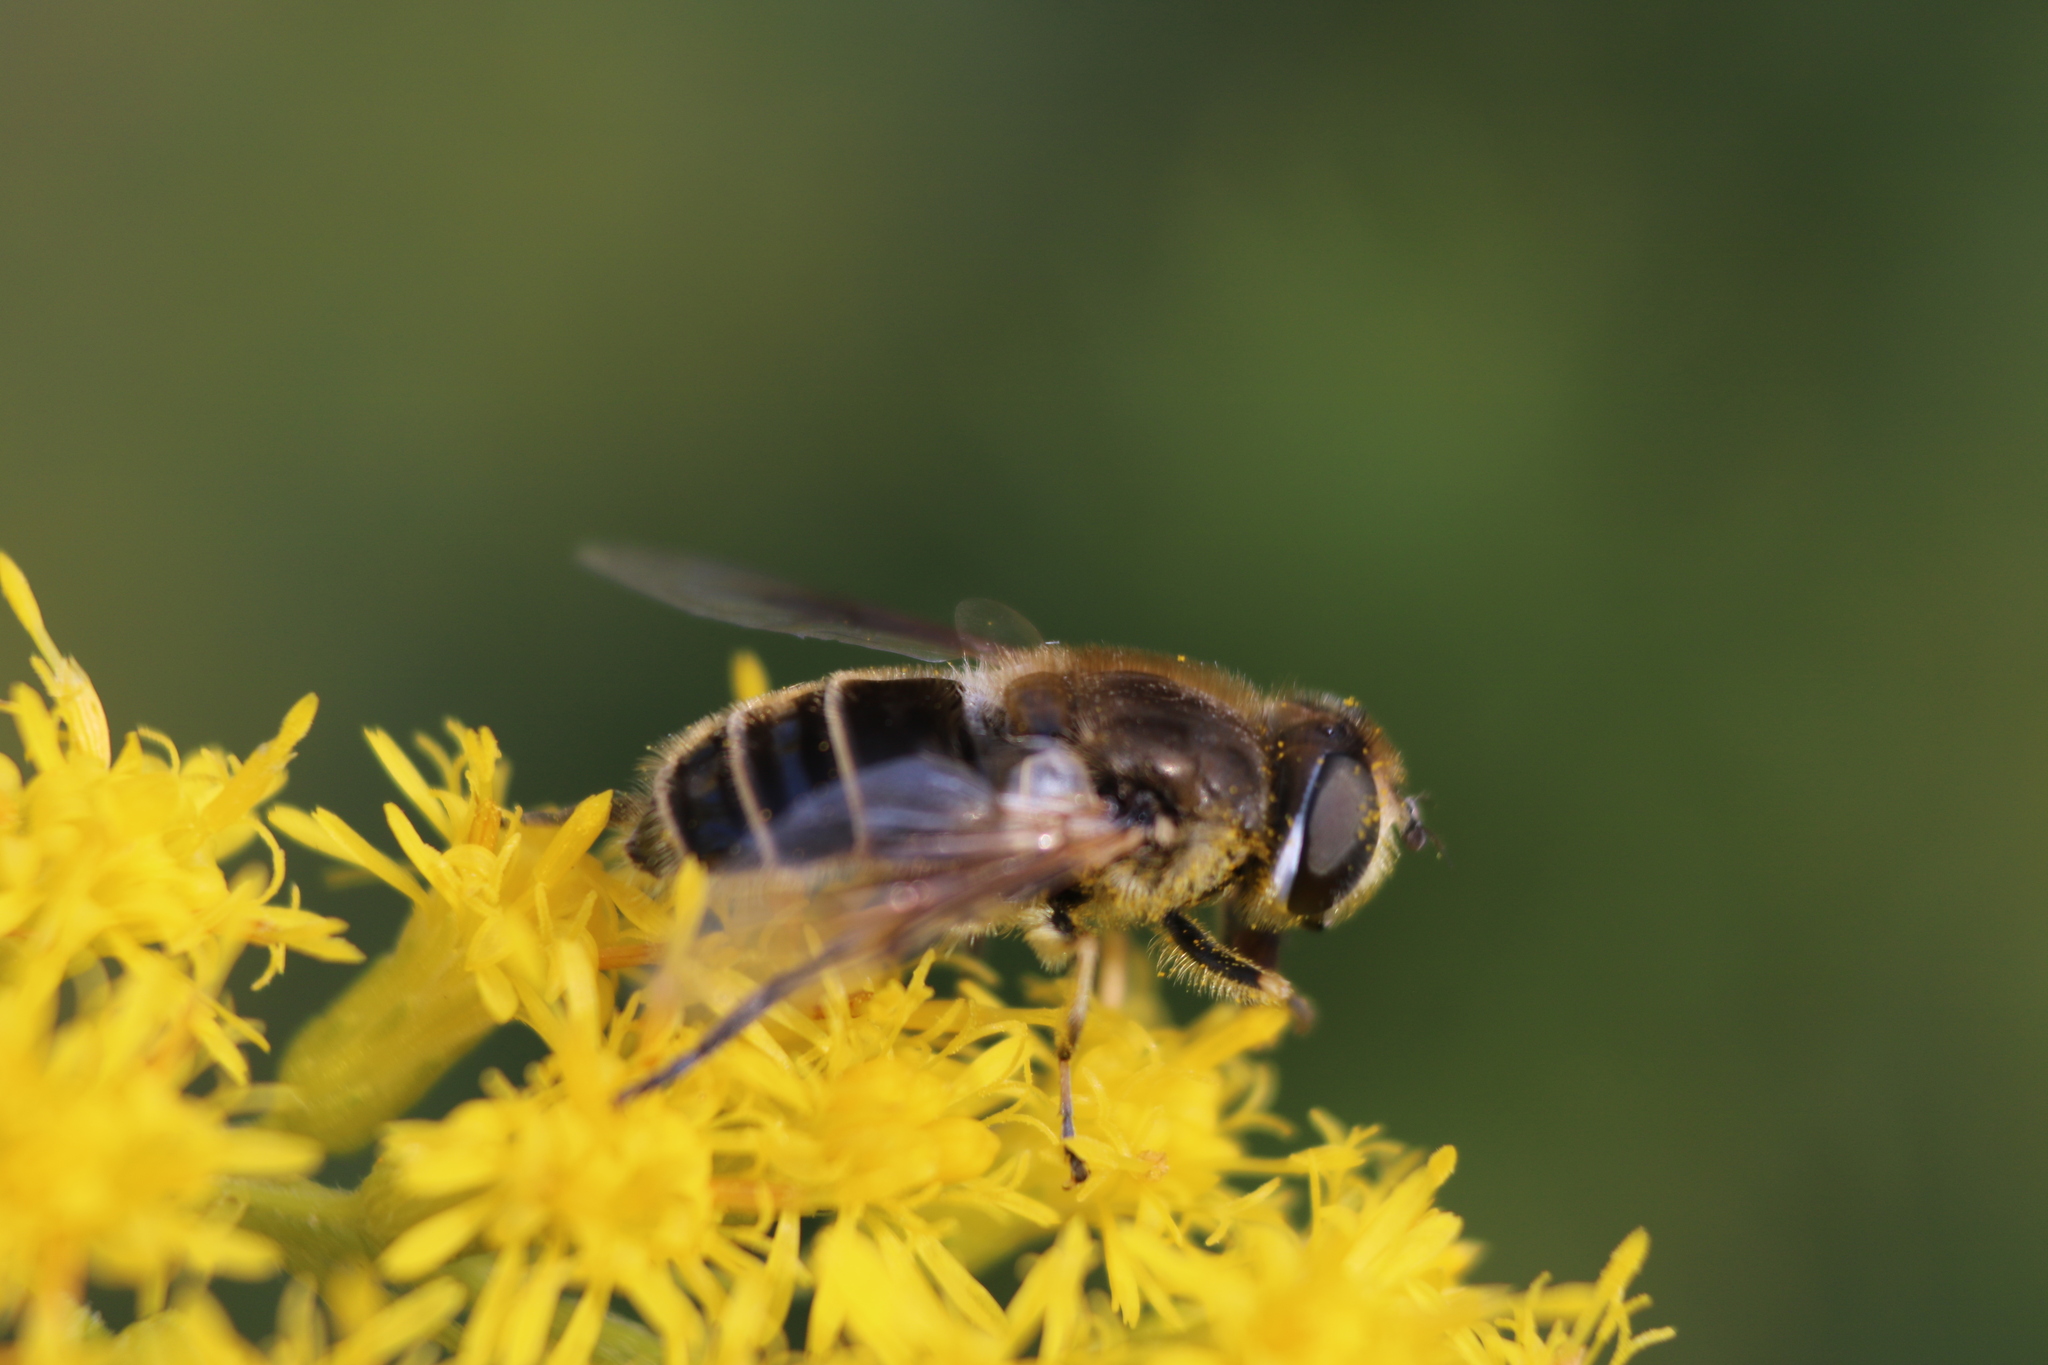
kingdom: Animalia
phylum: Arthropoda
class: Insecta
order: Diptera
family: Syrphidae
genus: Eristalis
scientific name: Eristalis arbustorum
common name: Hover fly
